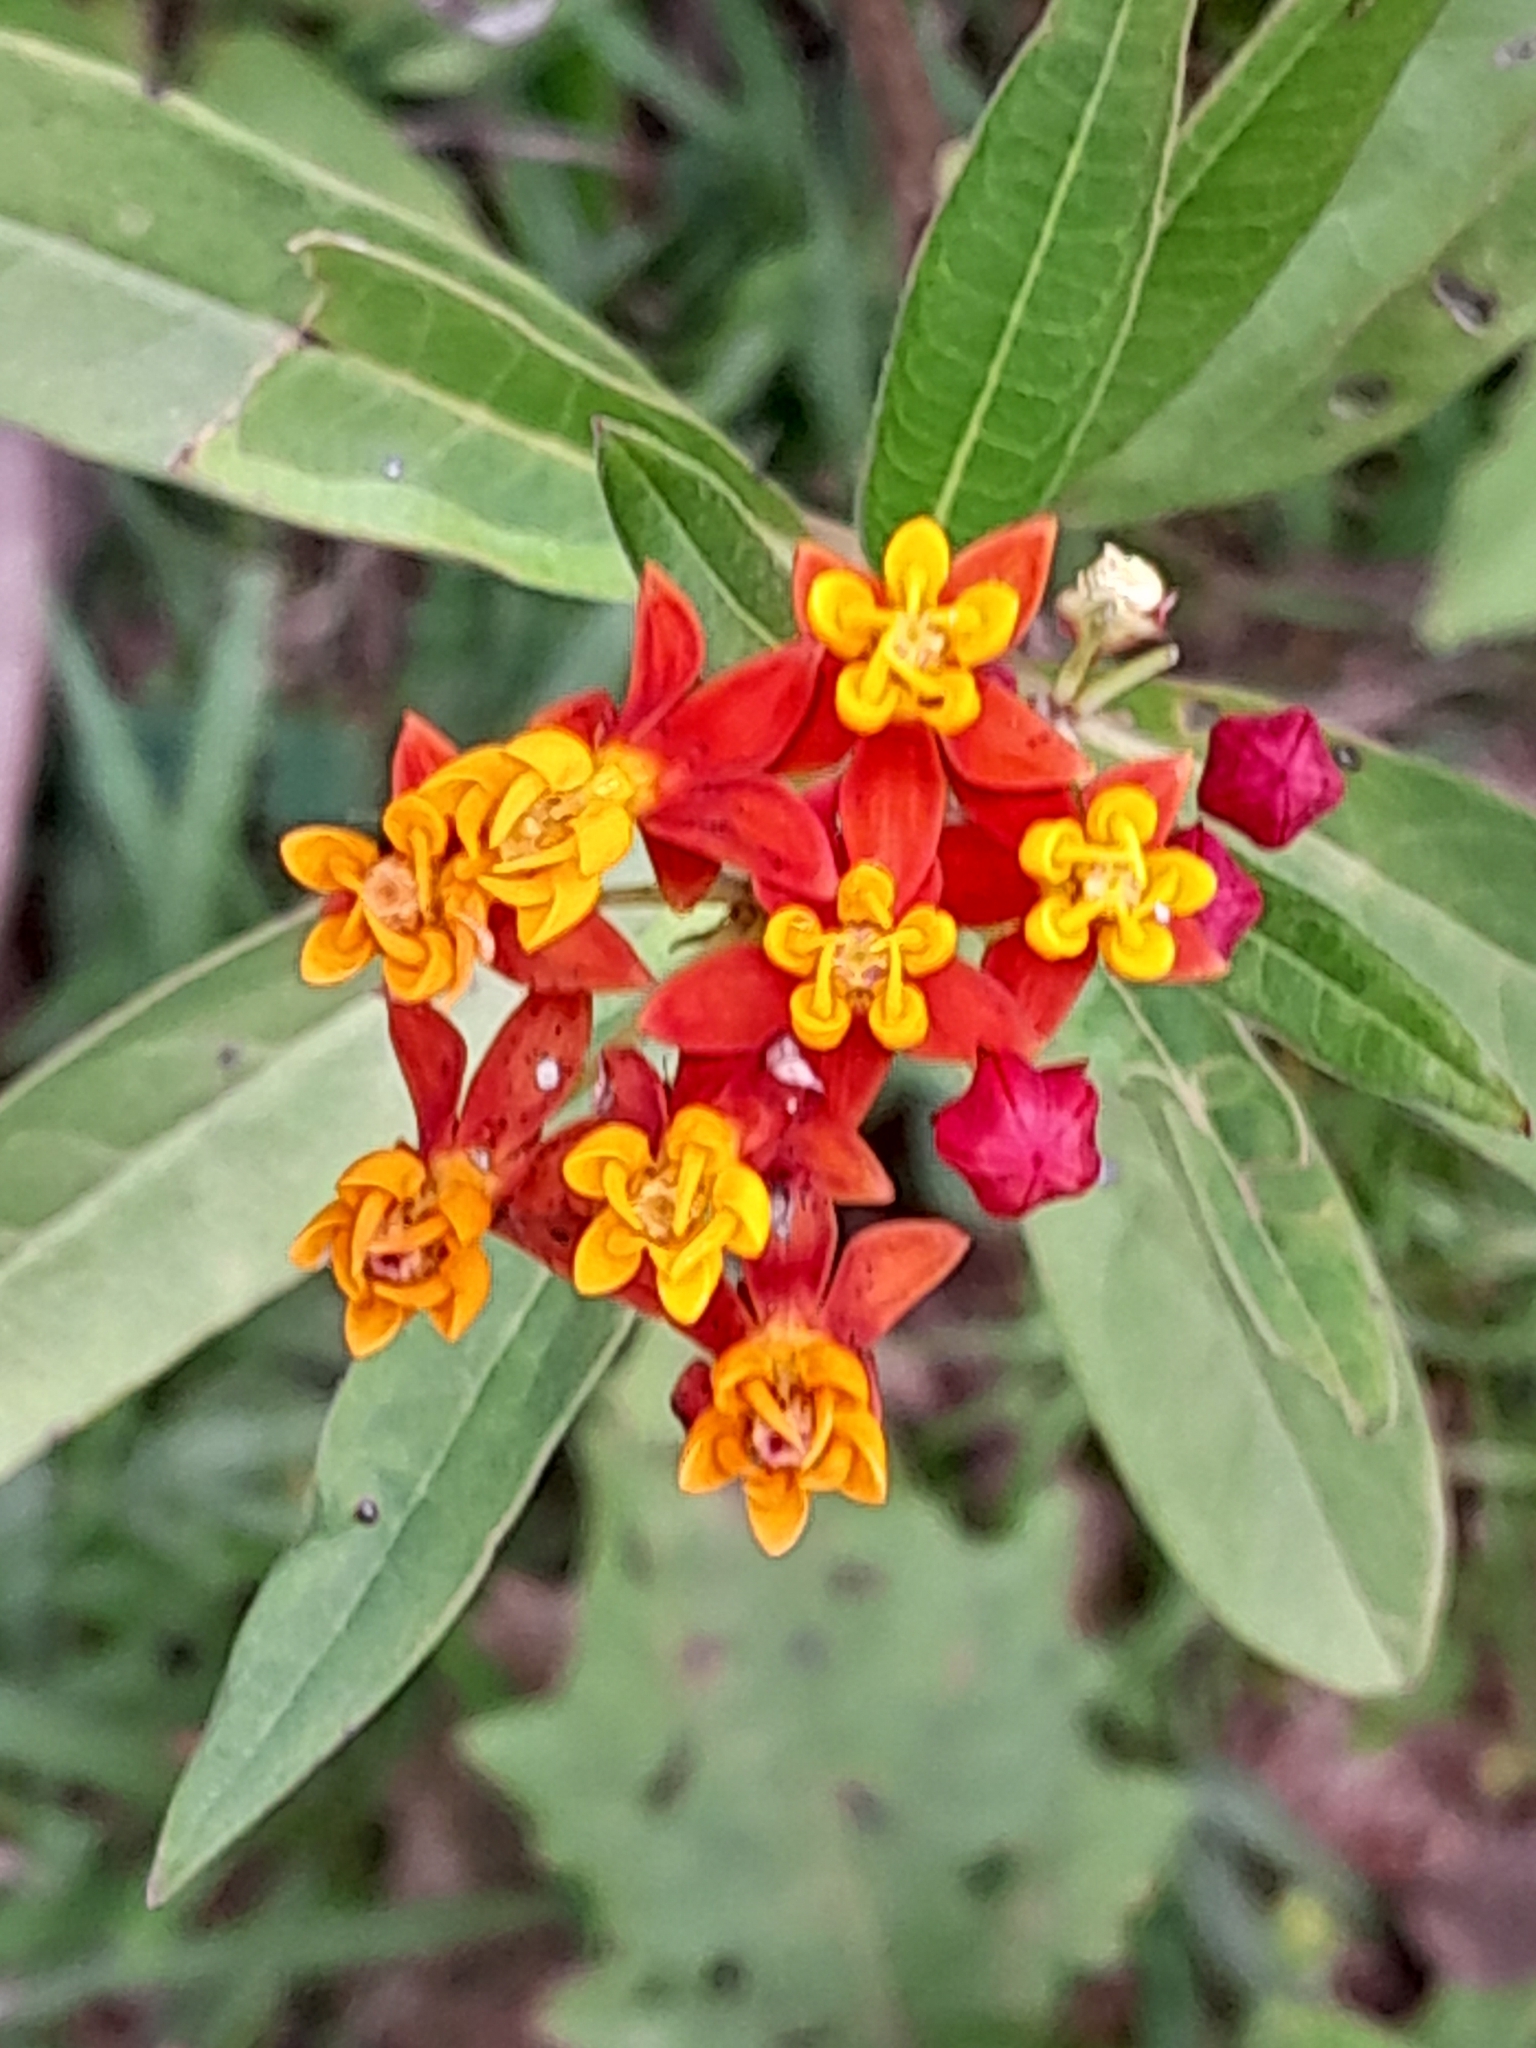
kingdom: Plantae
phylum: Tracheophyta
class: Magnoliopsida
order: Gentianales
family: Apocynaceae
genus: Asclepias
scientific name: Asclepias curassavica
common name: Bloodflower
